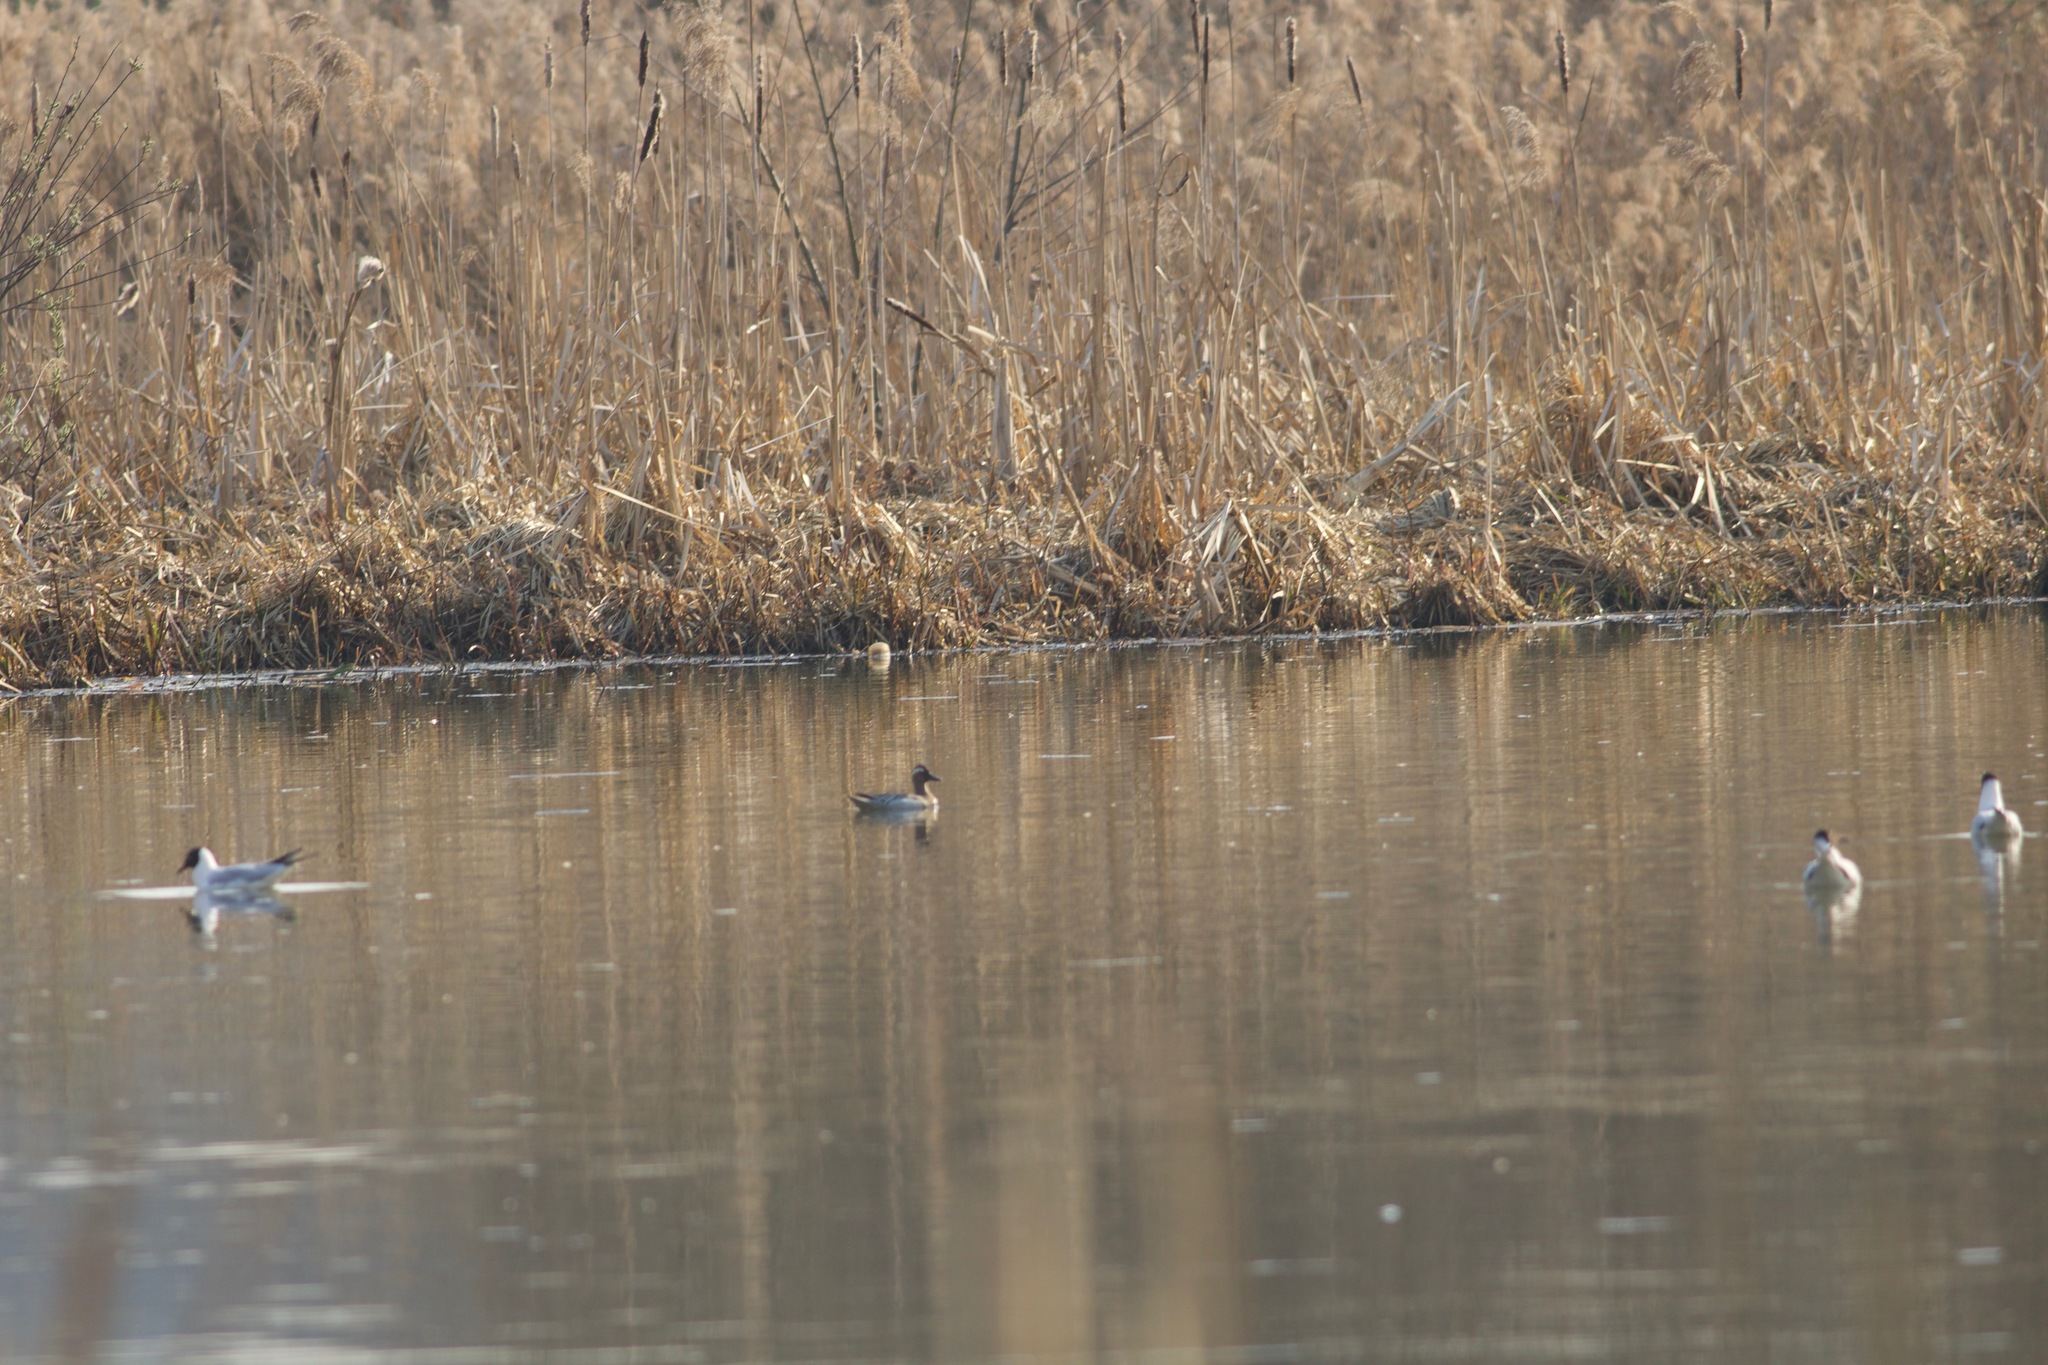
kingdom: Animalia
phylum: Chordata
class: Aves
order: Anseriformes
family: Anatidae
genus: Spatula
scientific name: Spatula querquedula
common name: Garganey
